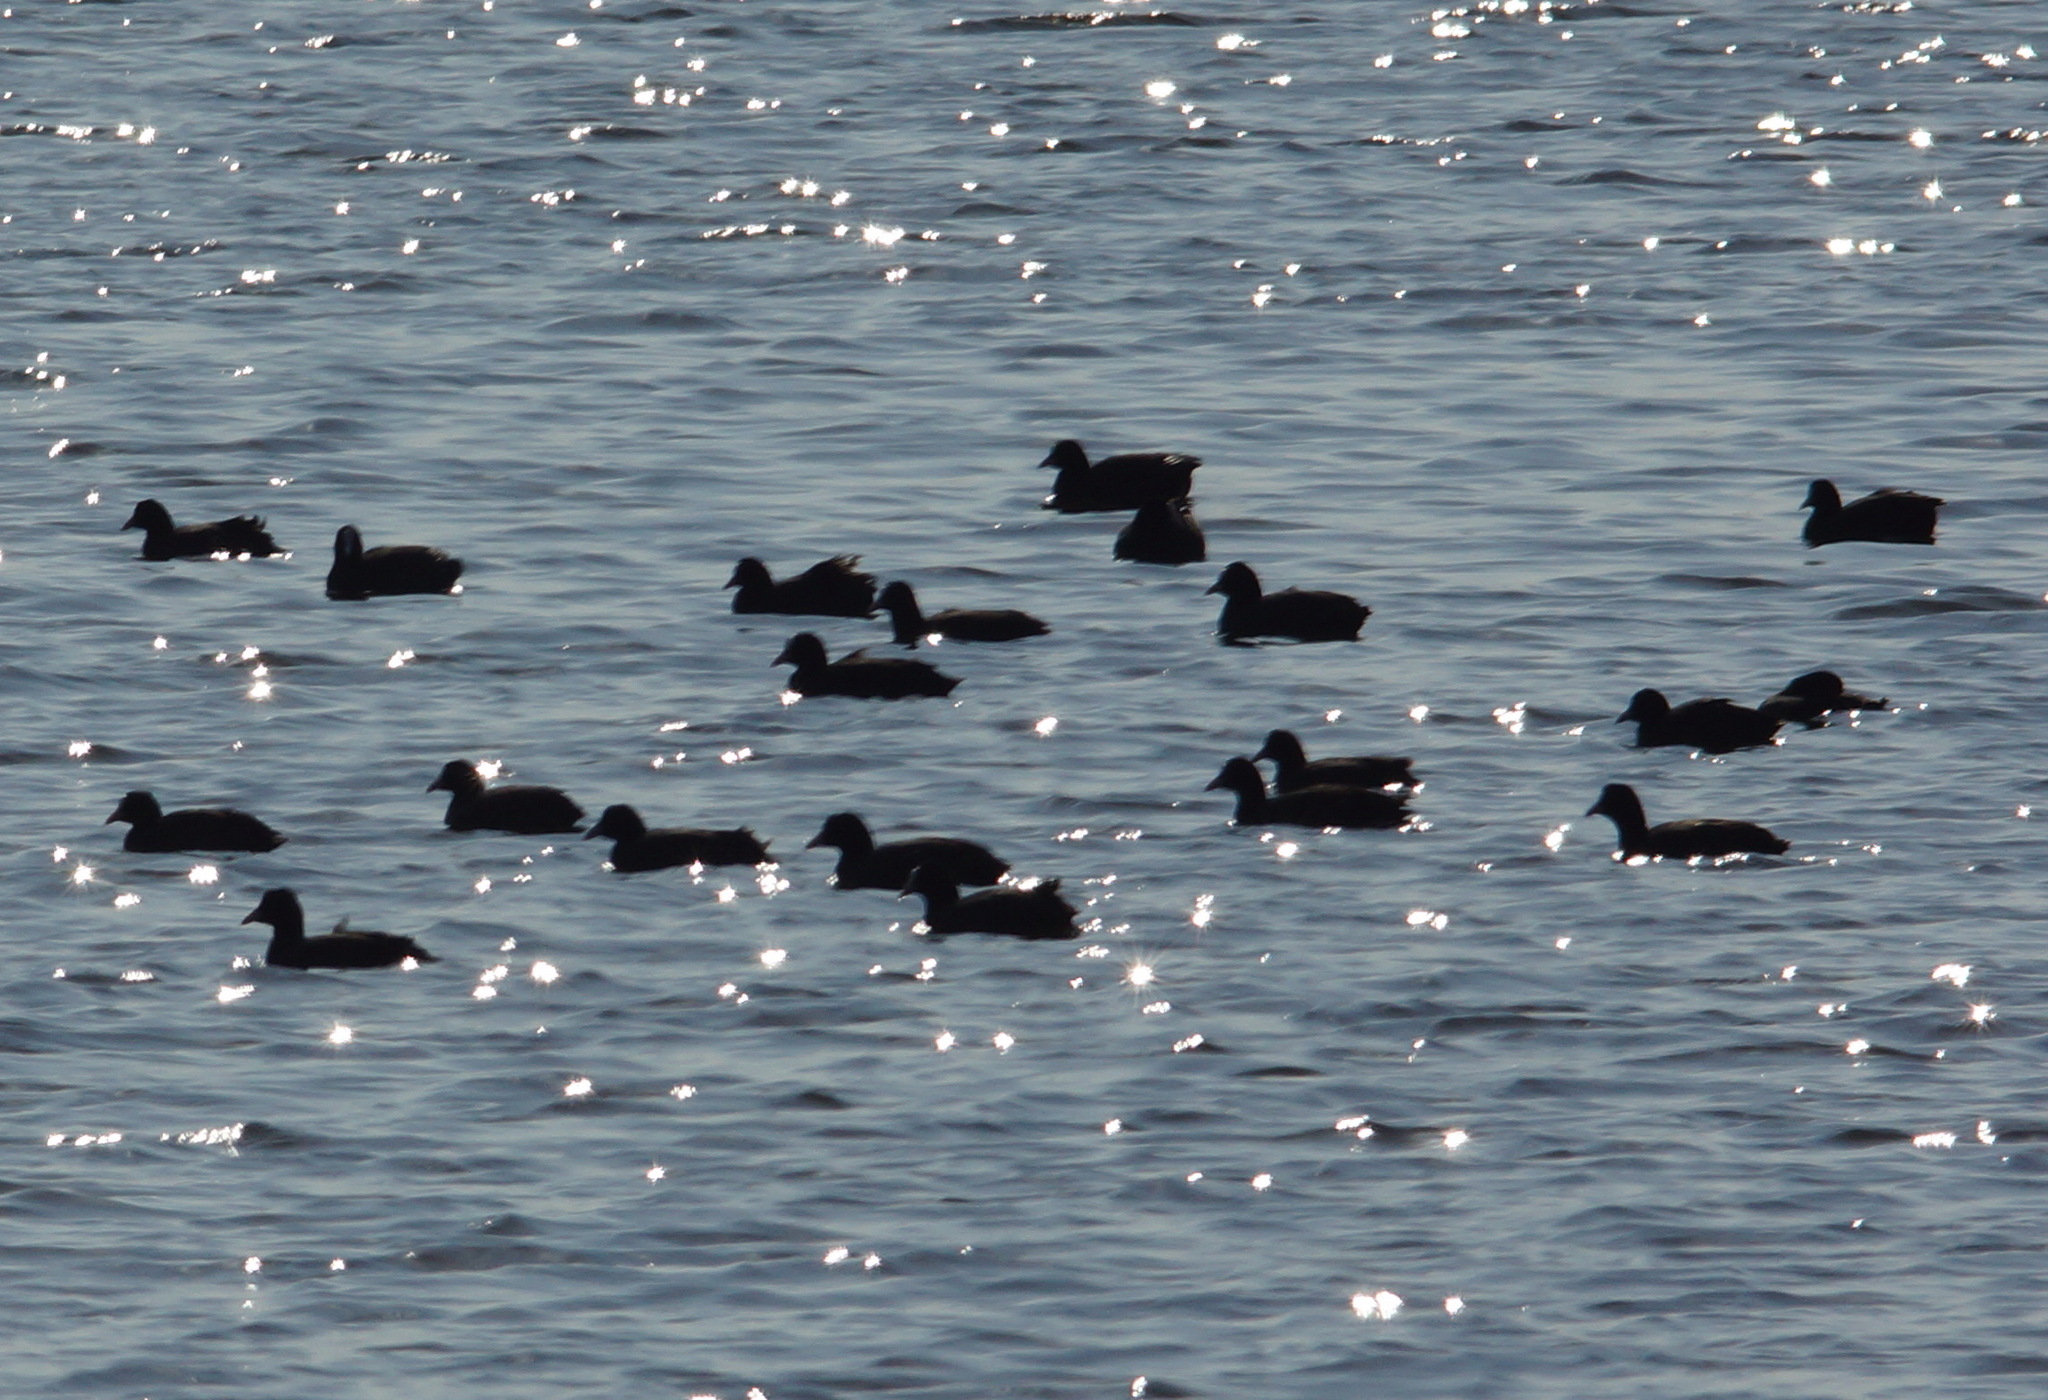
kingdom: Animalia
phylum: Chordata
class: Aves
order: Gruiformes
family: Rallidae
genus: Fulica
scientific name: Fulica atra
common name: Eurasian coot
